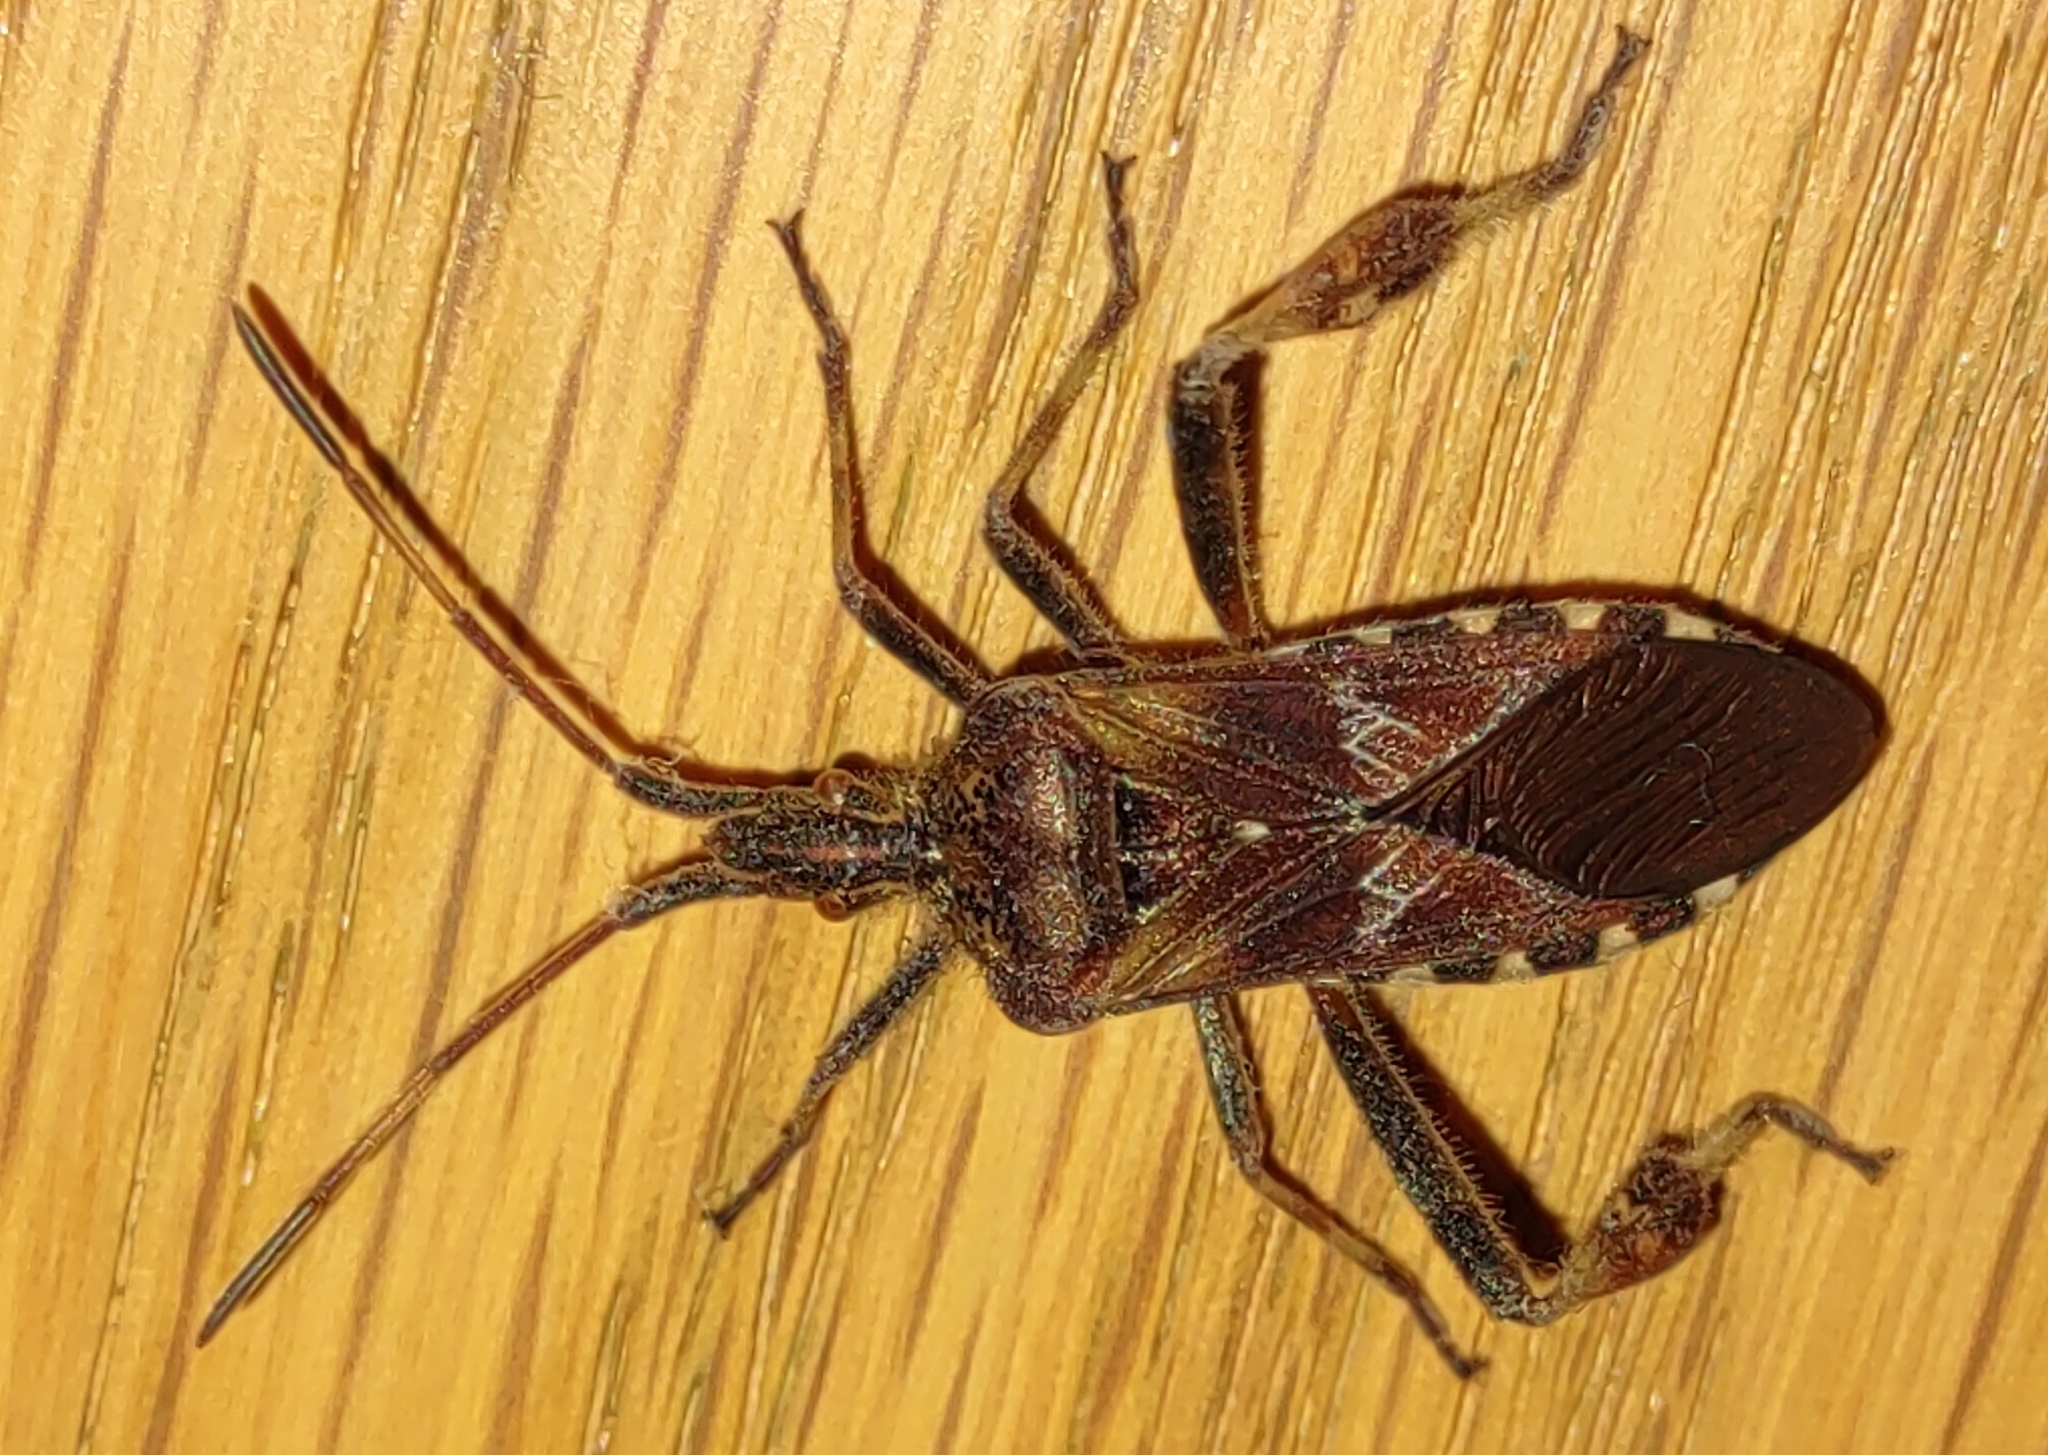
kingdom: Animalia
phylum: Arthropoda
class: Insecta
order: Hemiptera
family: Coreidae
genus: Leptoglossus
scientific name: Leptoglossus occidentalis
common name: Western conifer-seed bug
